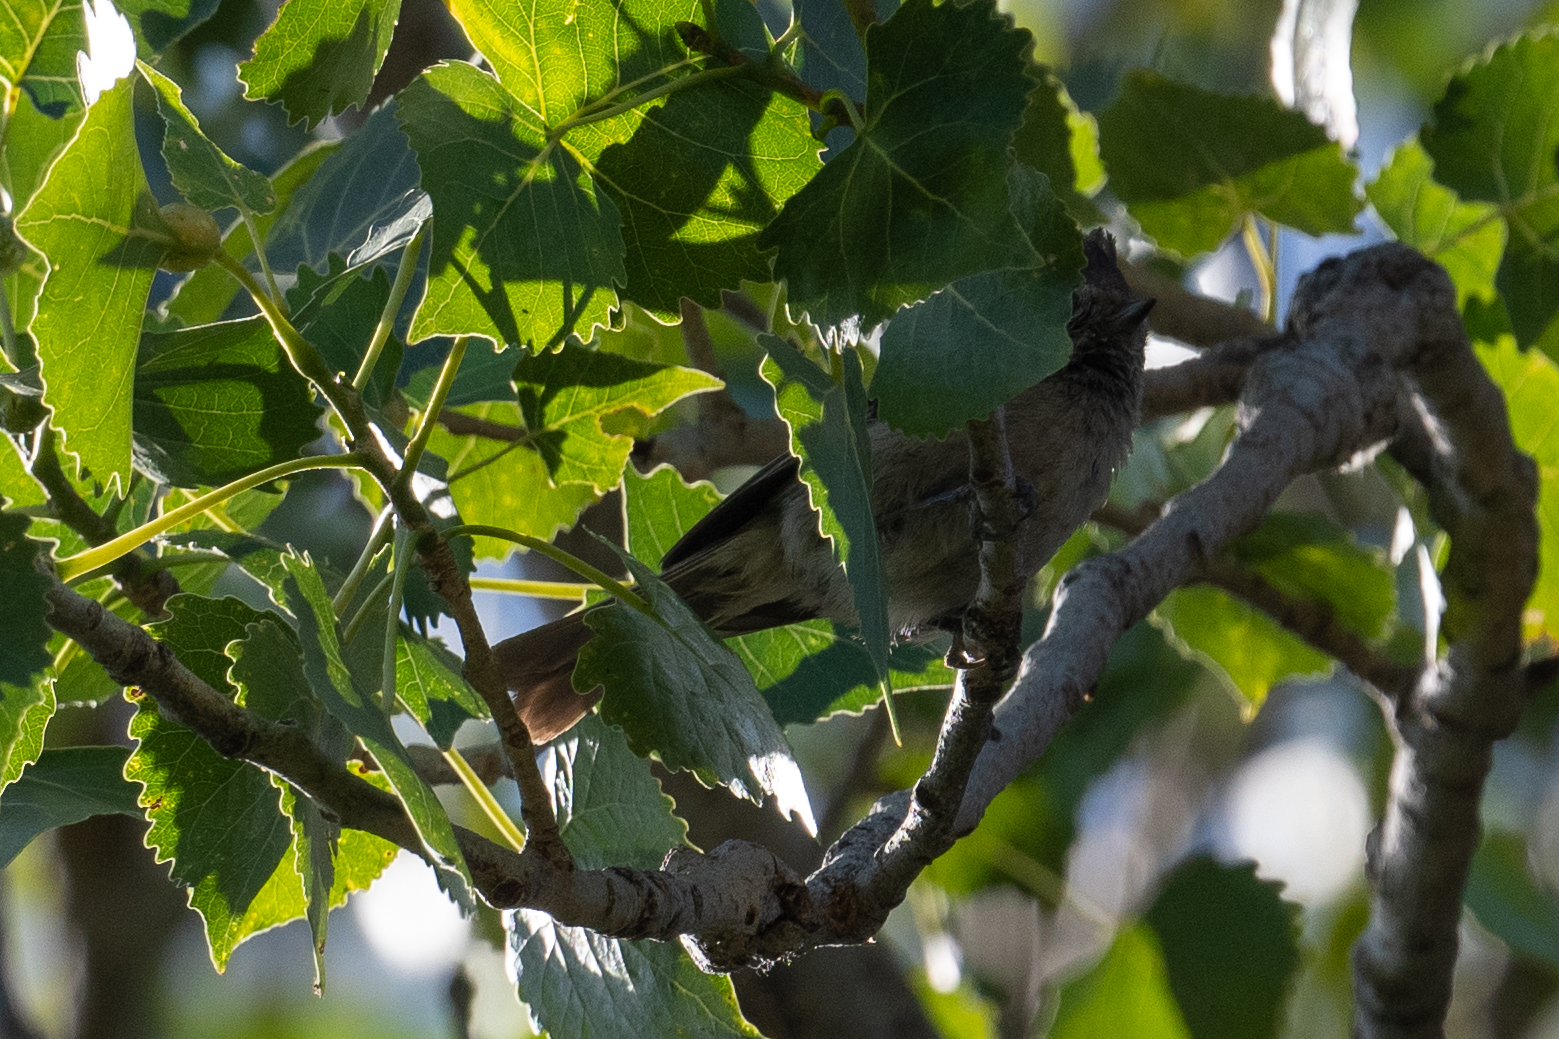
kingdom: Animalia
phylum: Chordata
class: Aves
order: Passeriformes
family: Paridae
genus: Baeolophus
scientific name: Baeolophus inornatus
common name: Oak titmouse
